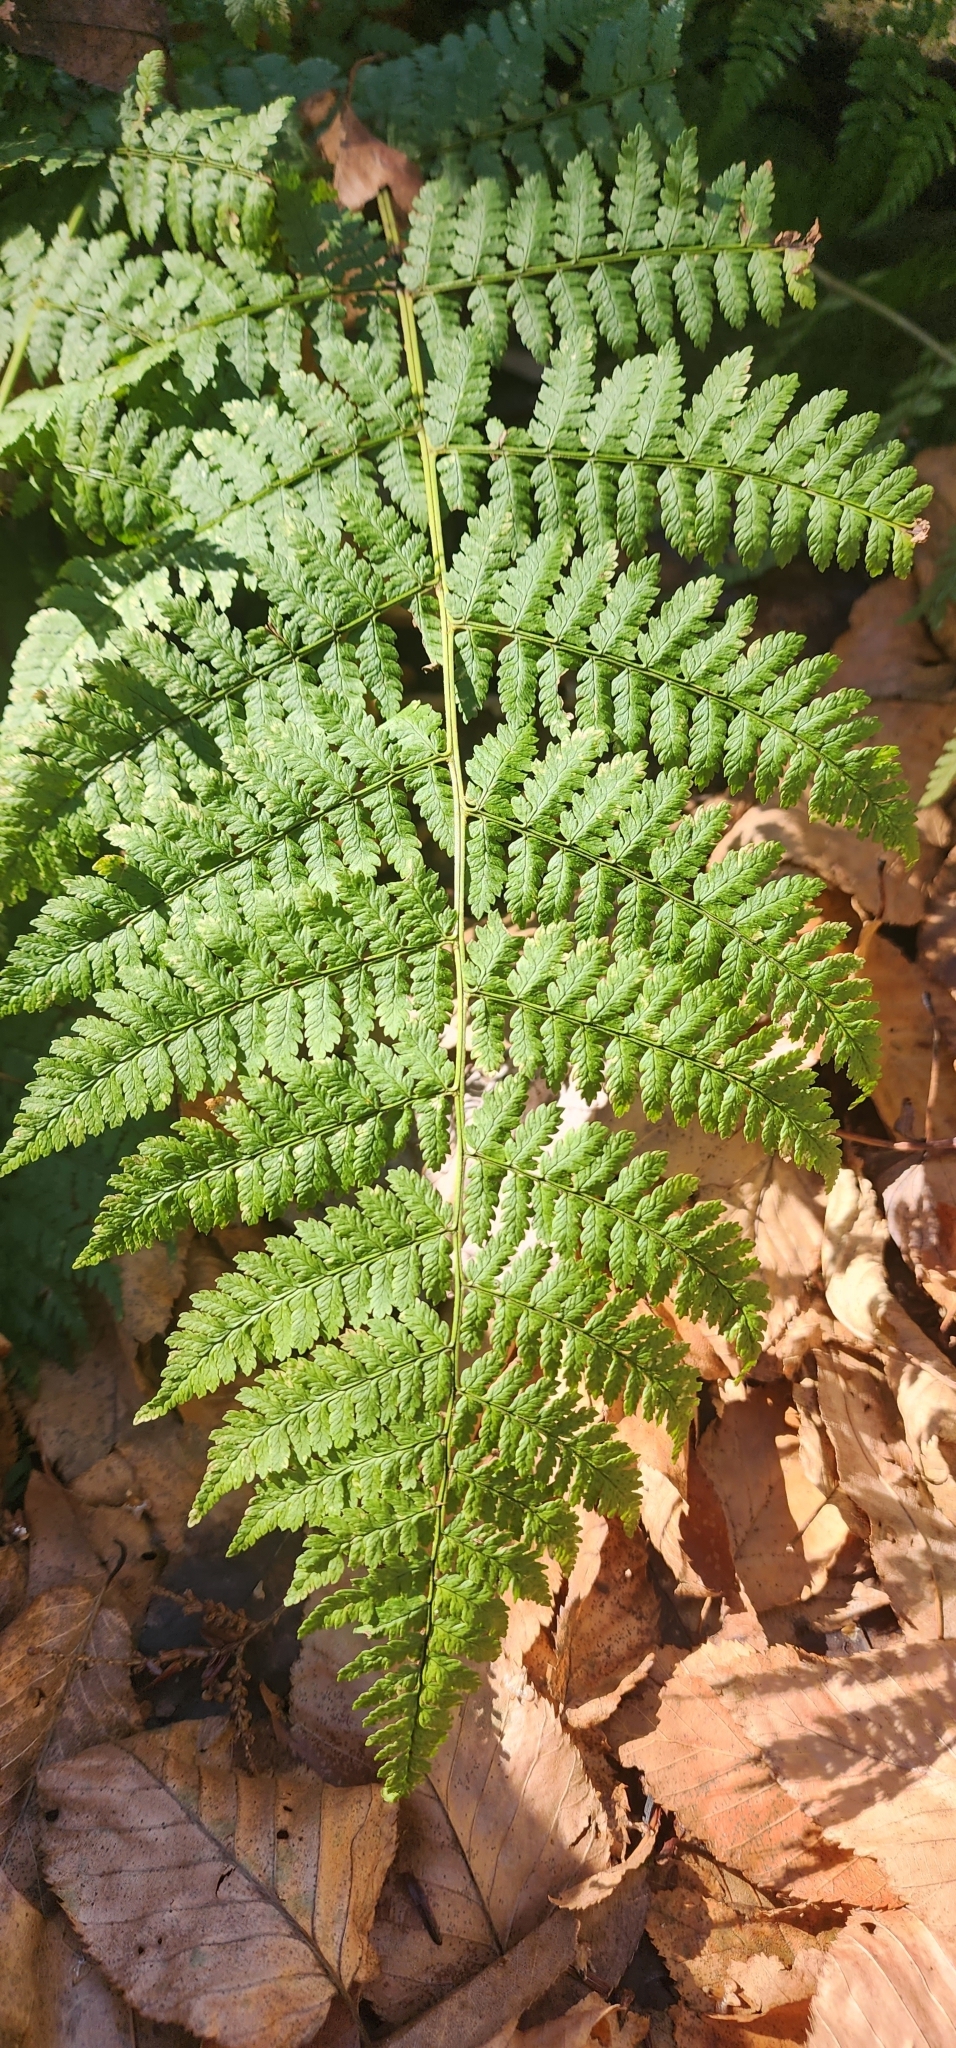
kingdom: Plantae
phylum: Tracheophyta
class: Polypodiopsida
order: Polypodiales
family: Dryopteridaceae
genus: Dryopteris
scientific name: Dryopteris intermedia
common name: Evergreen wood fern
